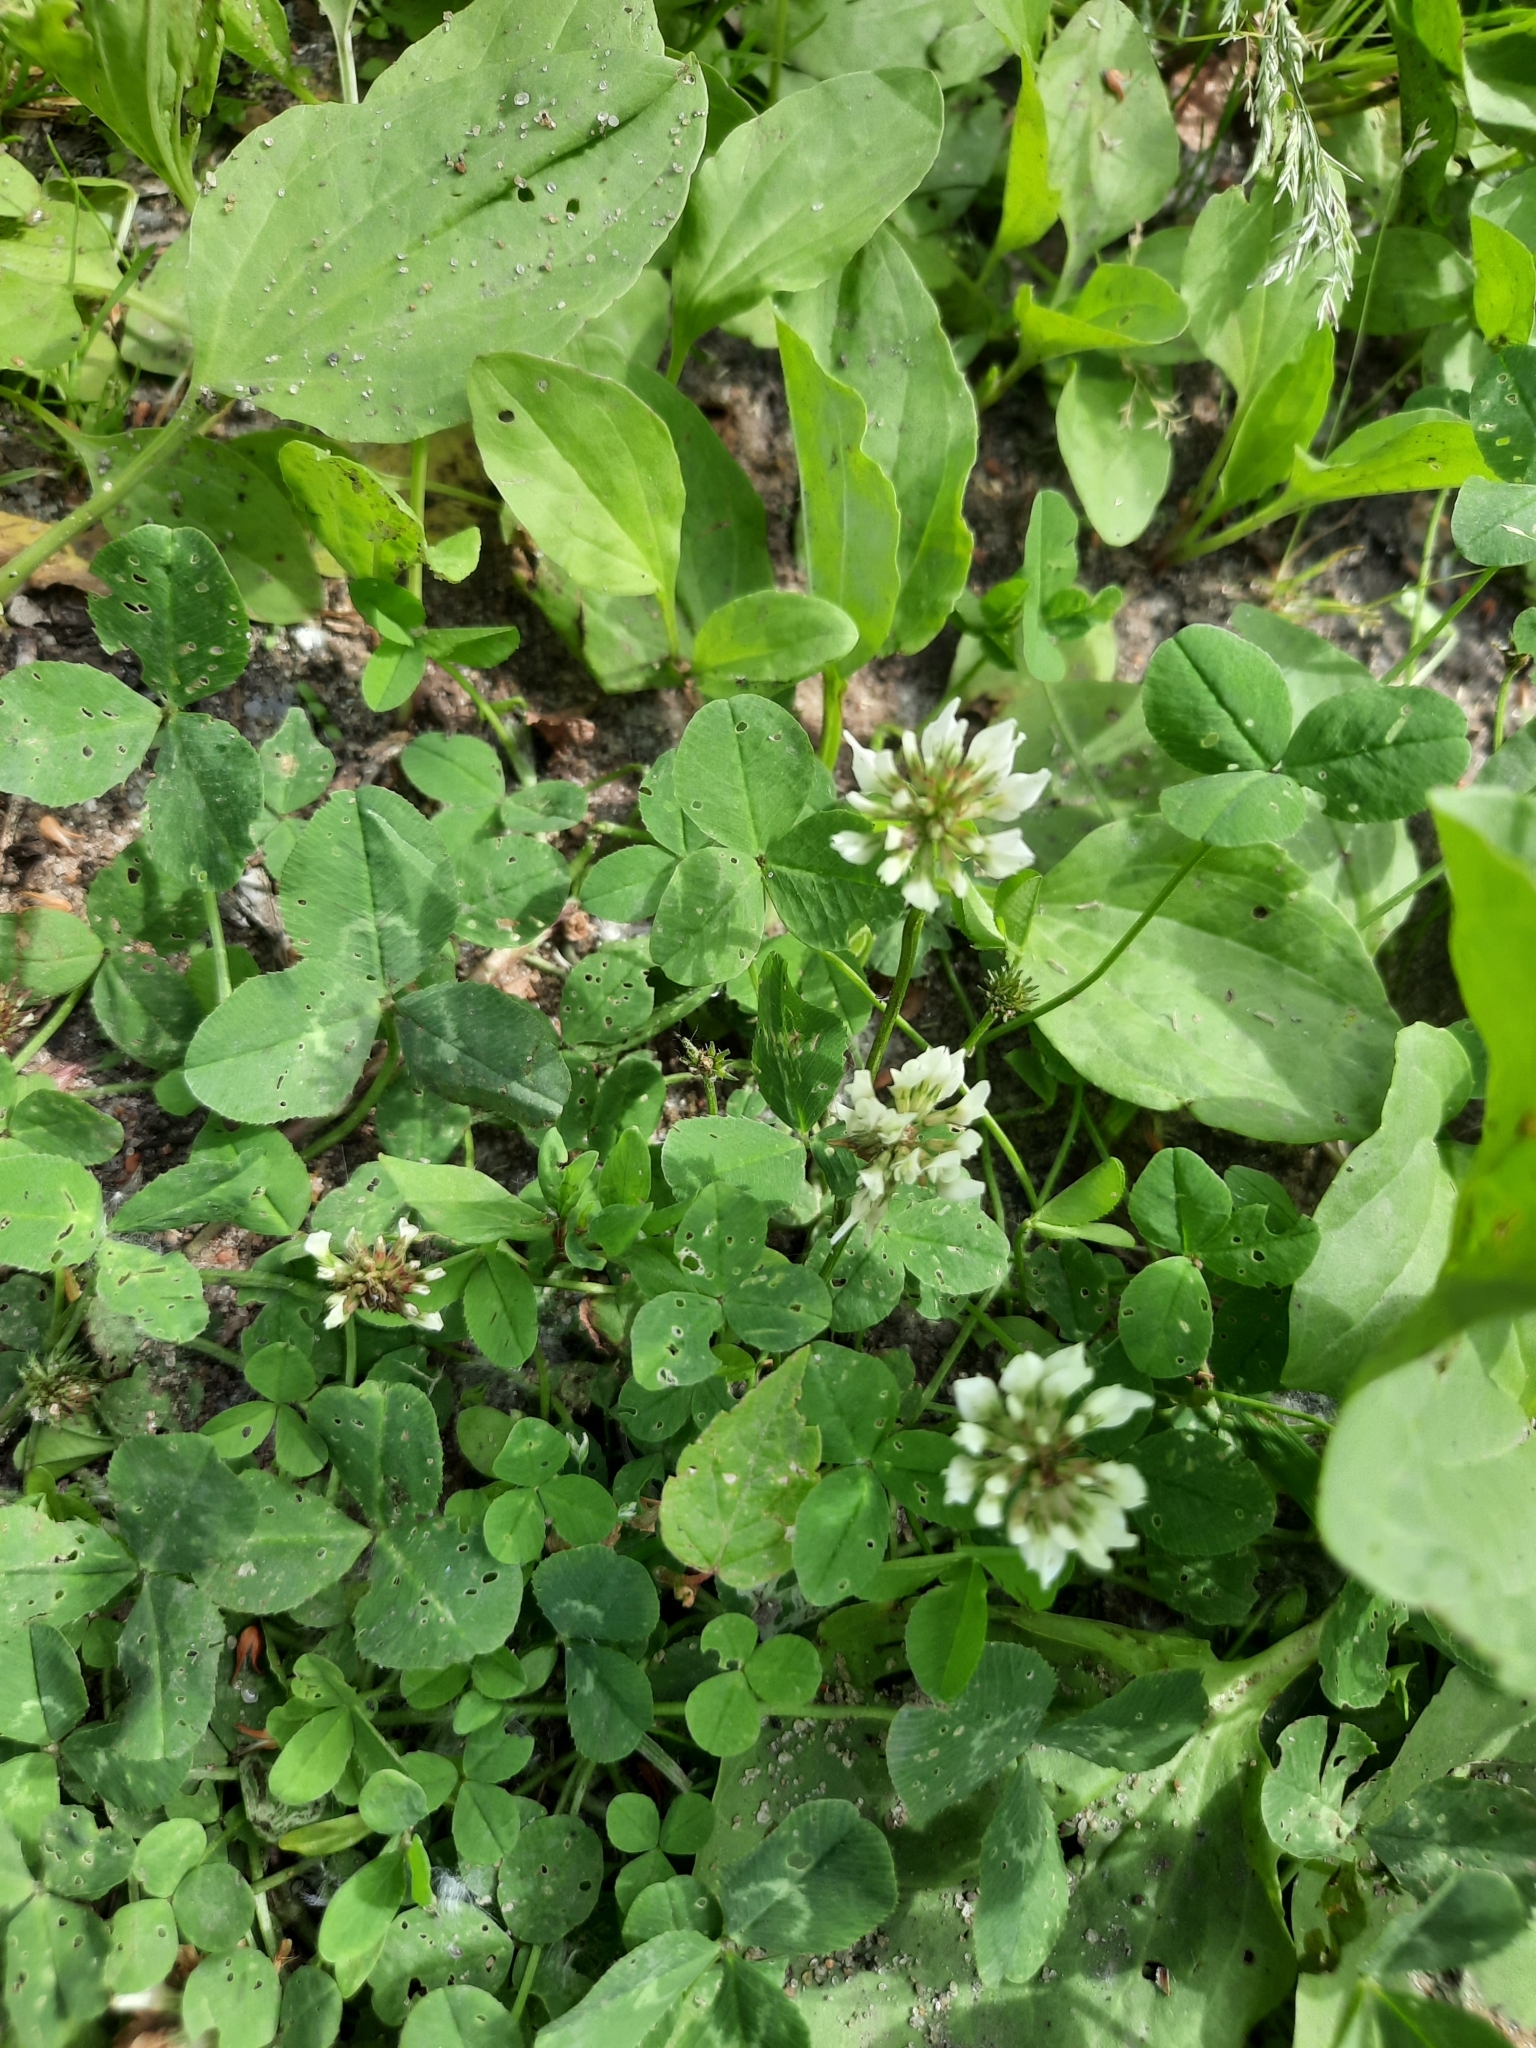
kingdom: Plantae
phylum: Tracheophyta
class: Magnoliopsida
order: Fabales
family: Fabaceae
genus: Trifolium
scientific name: Trifolium repens
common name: White clover
